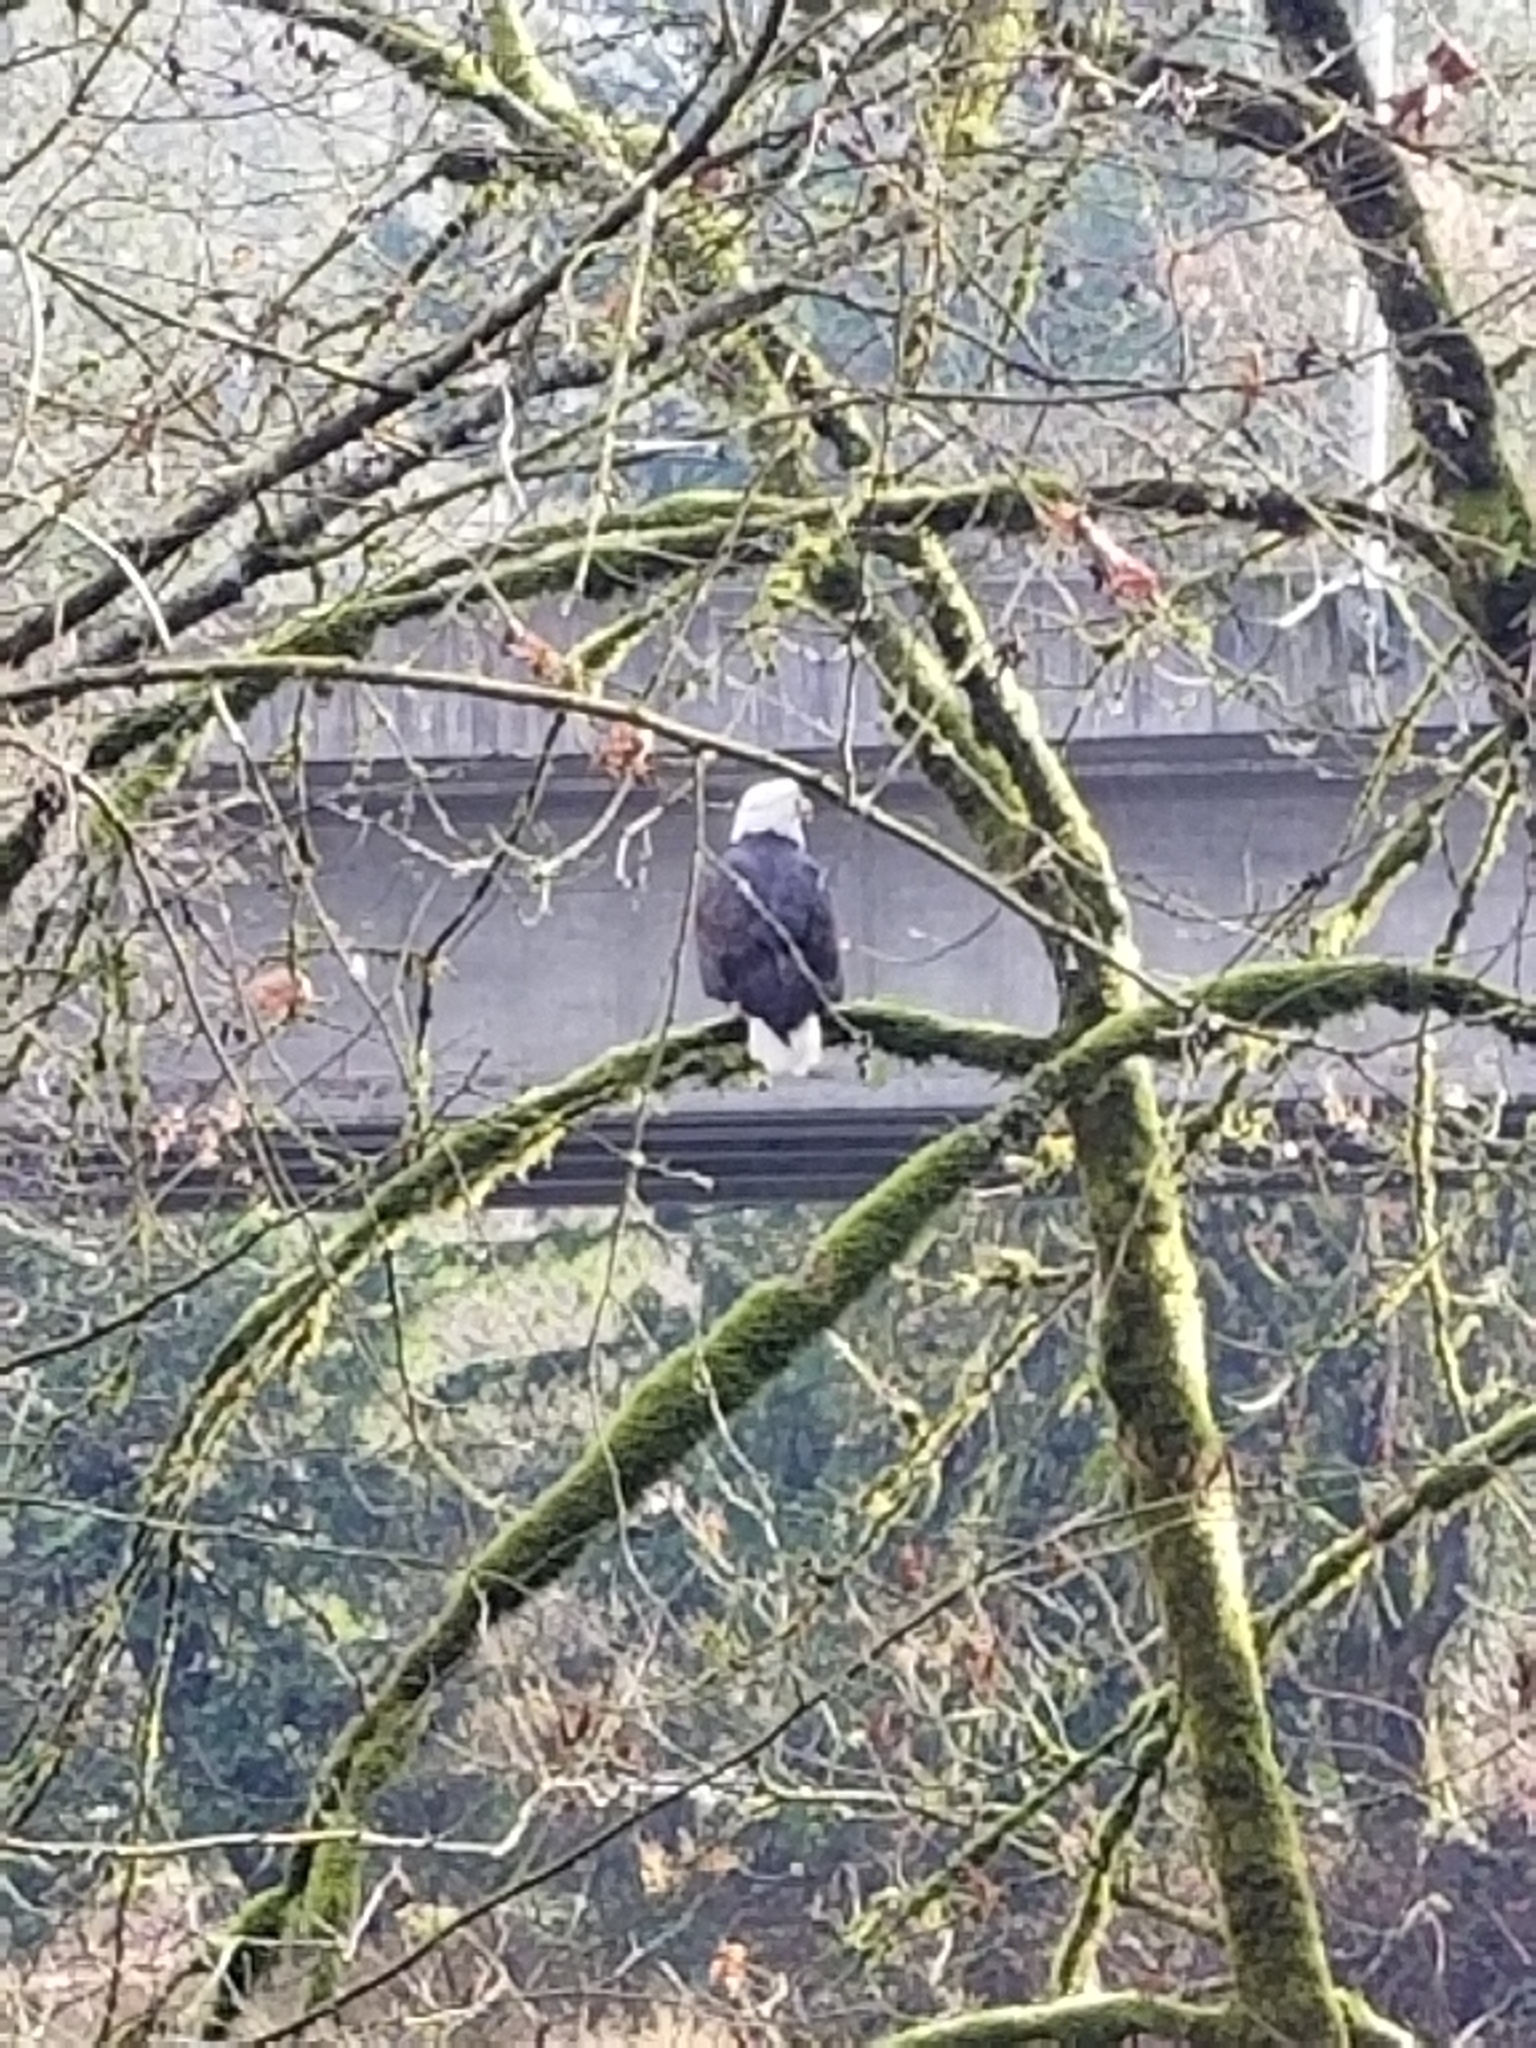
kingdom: Animalia
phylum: Chordata
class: Aves
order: Accipitriformes
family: Accipitridae
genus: Haliaeetus
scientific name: Haliaeetus leucocephalus
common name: Bald eagle
